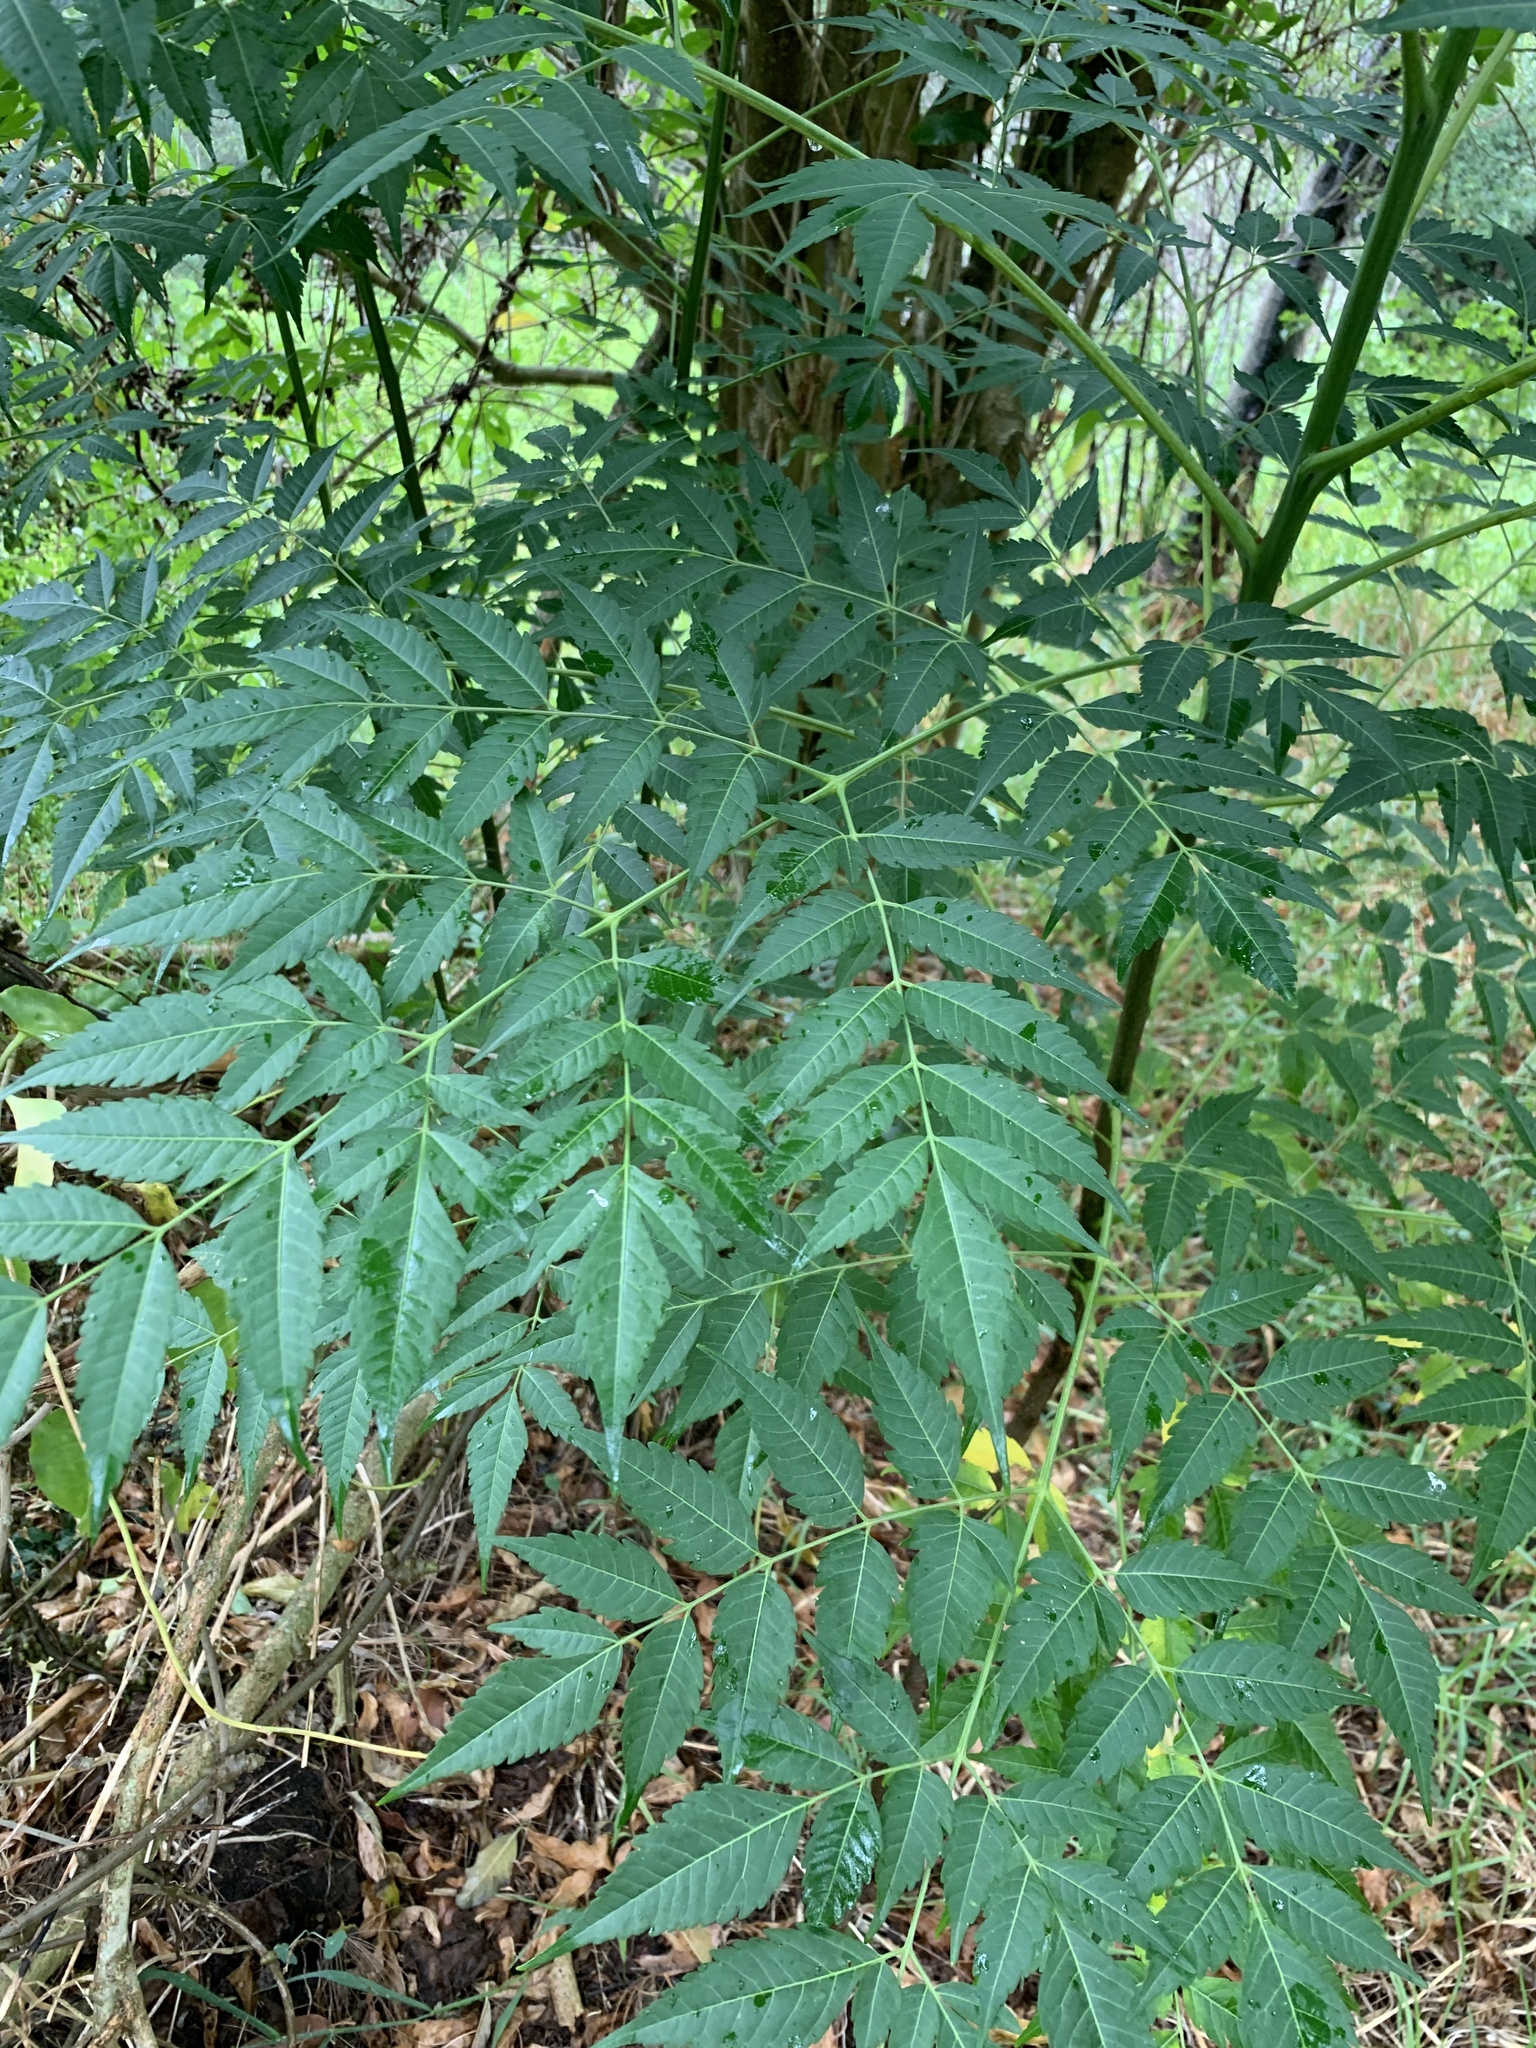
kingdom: Plantae
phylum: Tracheophyta
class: Magnoliopsida
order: Sapindales
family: Meliaceae
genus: Melia
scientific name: Melia azedarach
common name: Chinaberrytree
